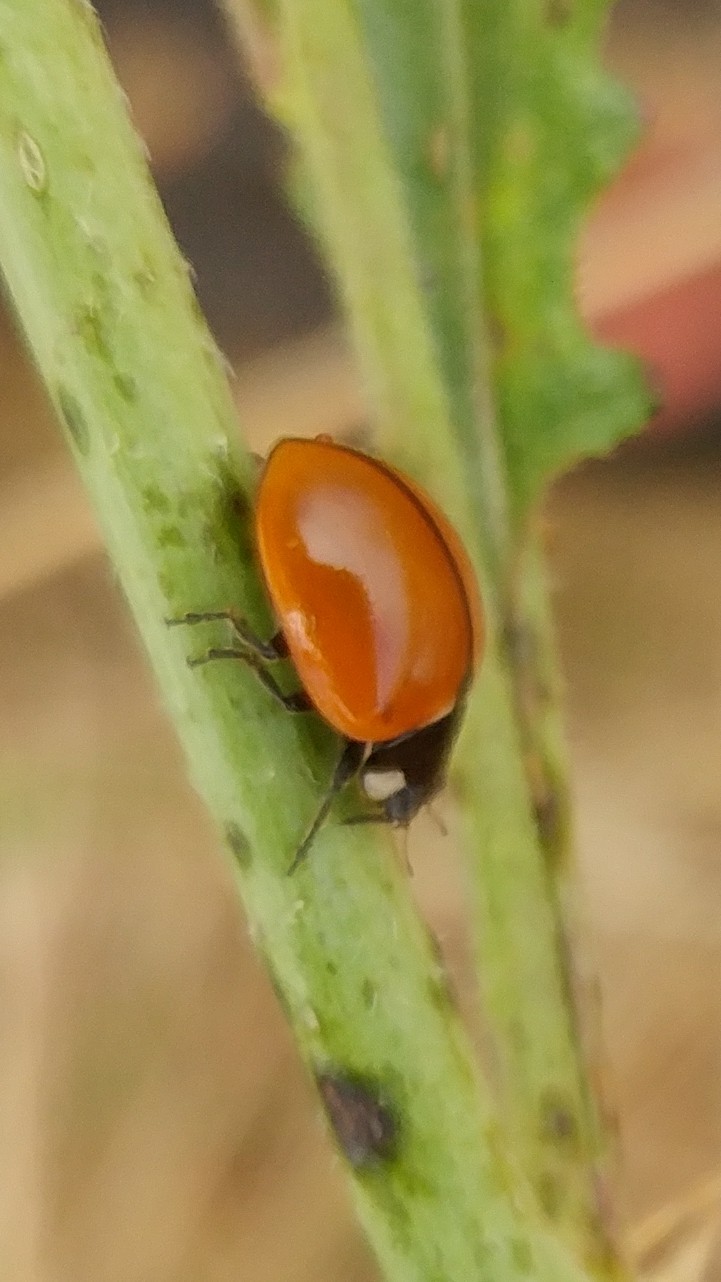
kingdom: Animalia
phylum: Arthropoda
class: Insecta
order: Coleoptera
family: Coccinellidae
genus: Coccinella
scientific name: Coccinella californica
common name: Lady beetle
